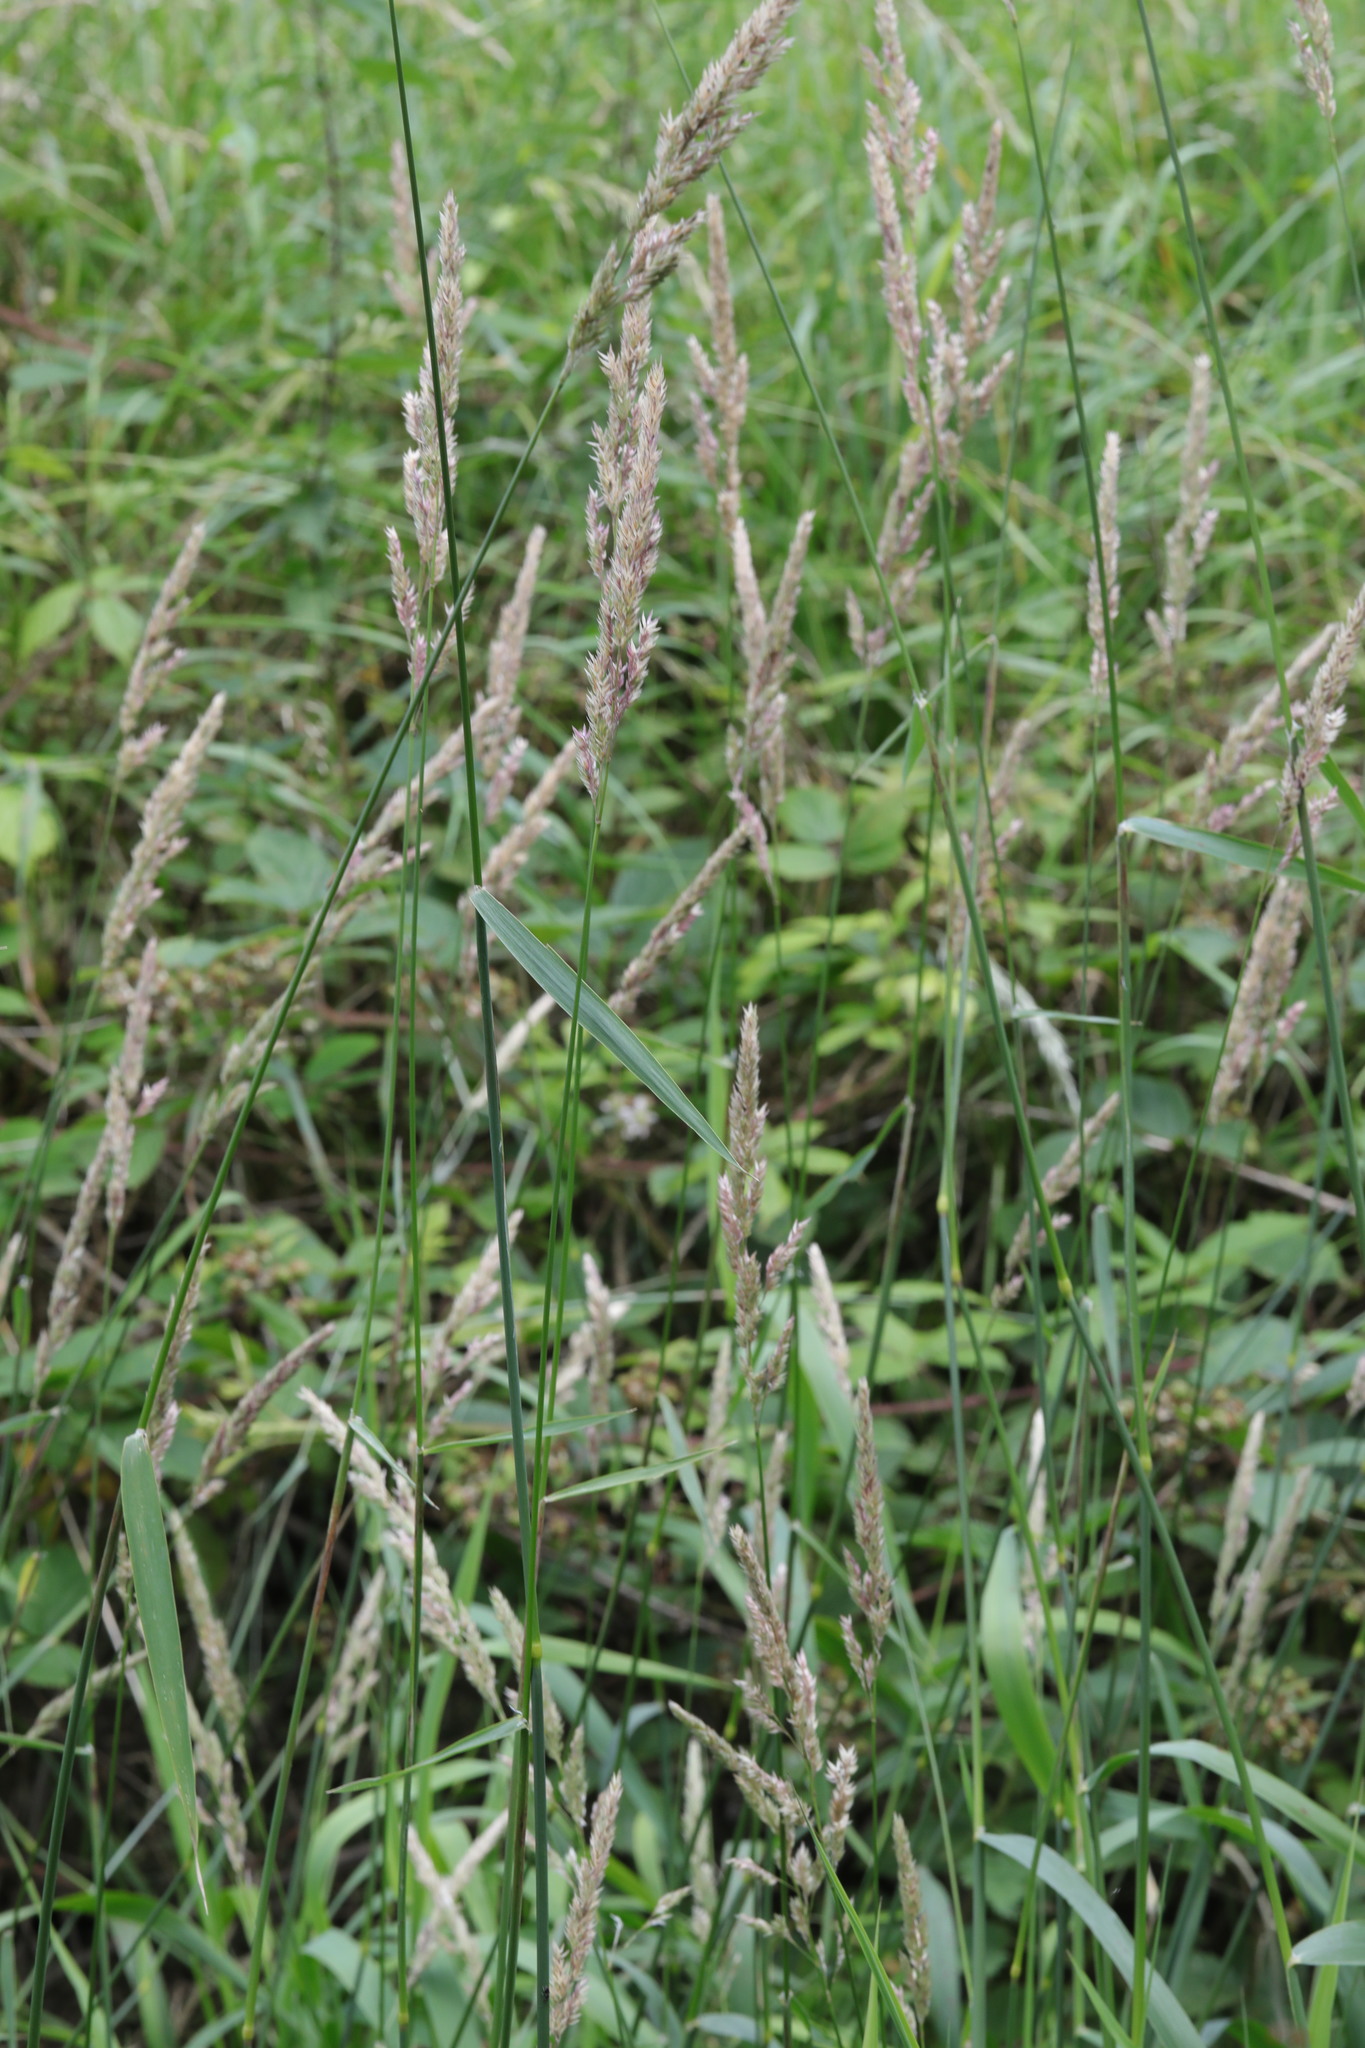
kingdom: Plantae
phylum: Tracheophyta
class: Liliopsida
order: Poales
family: Poaceae
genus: Phalaris
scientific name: Phalaris arundinacea
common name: Reed canary-grass
